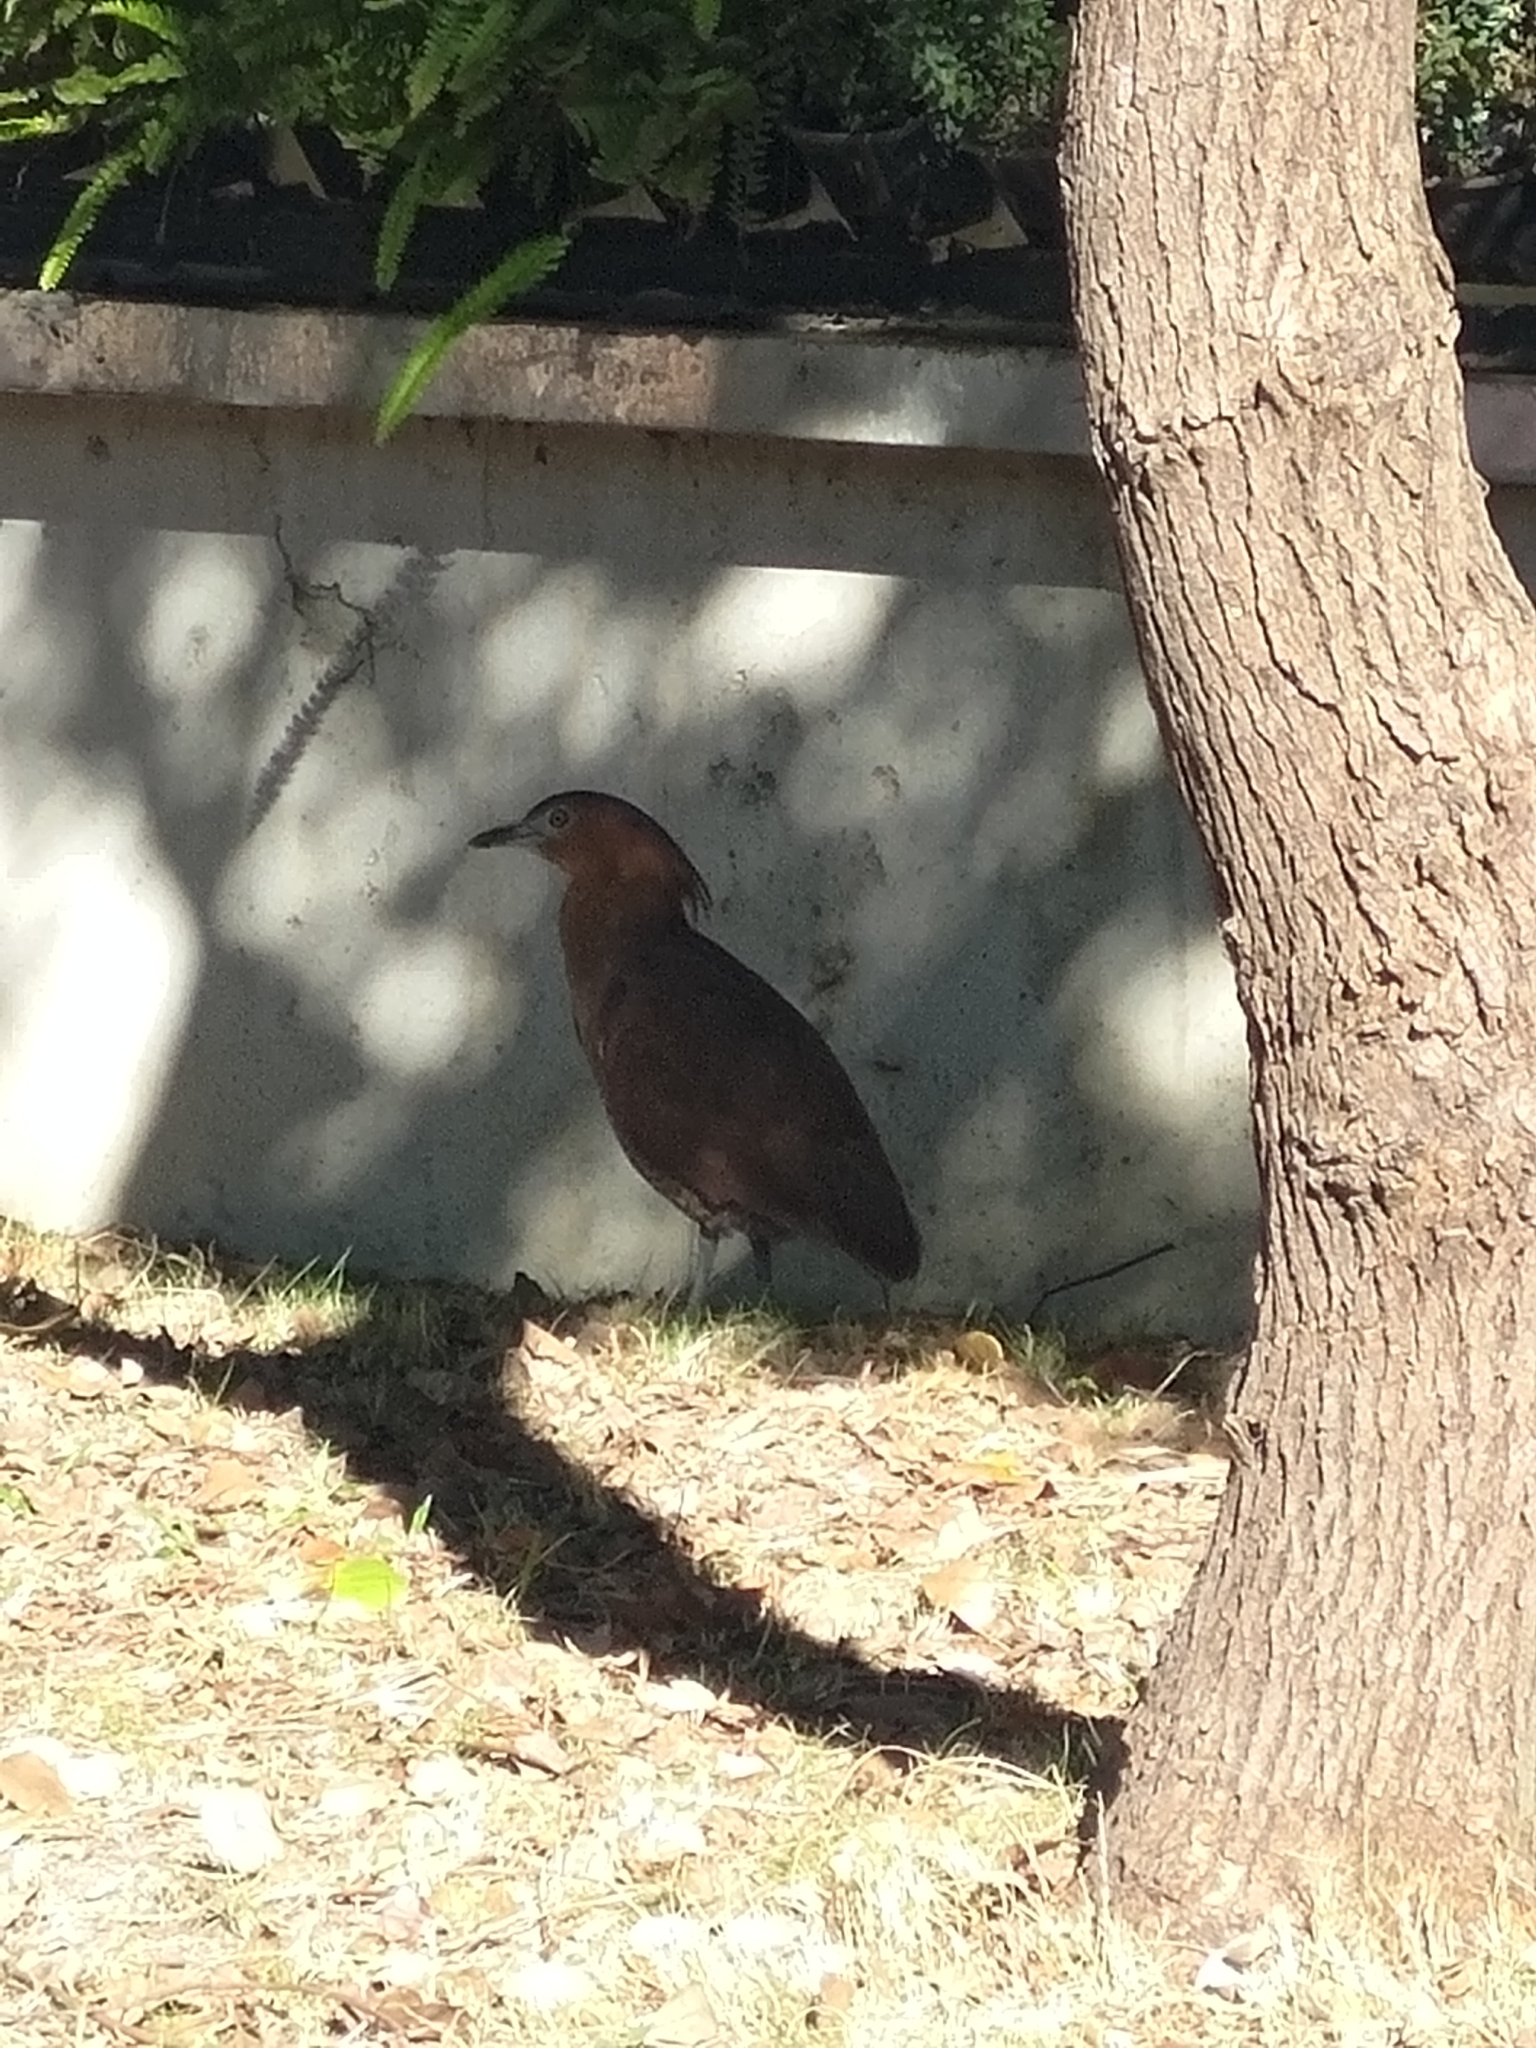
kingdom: Animalia
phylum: Chordata
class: Aves
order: Pelecaniformes
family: Ardeidae
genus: Gorsachius
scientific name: Gorsachius melanolophus
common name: Malayan night heron
